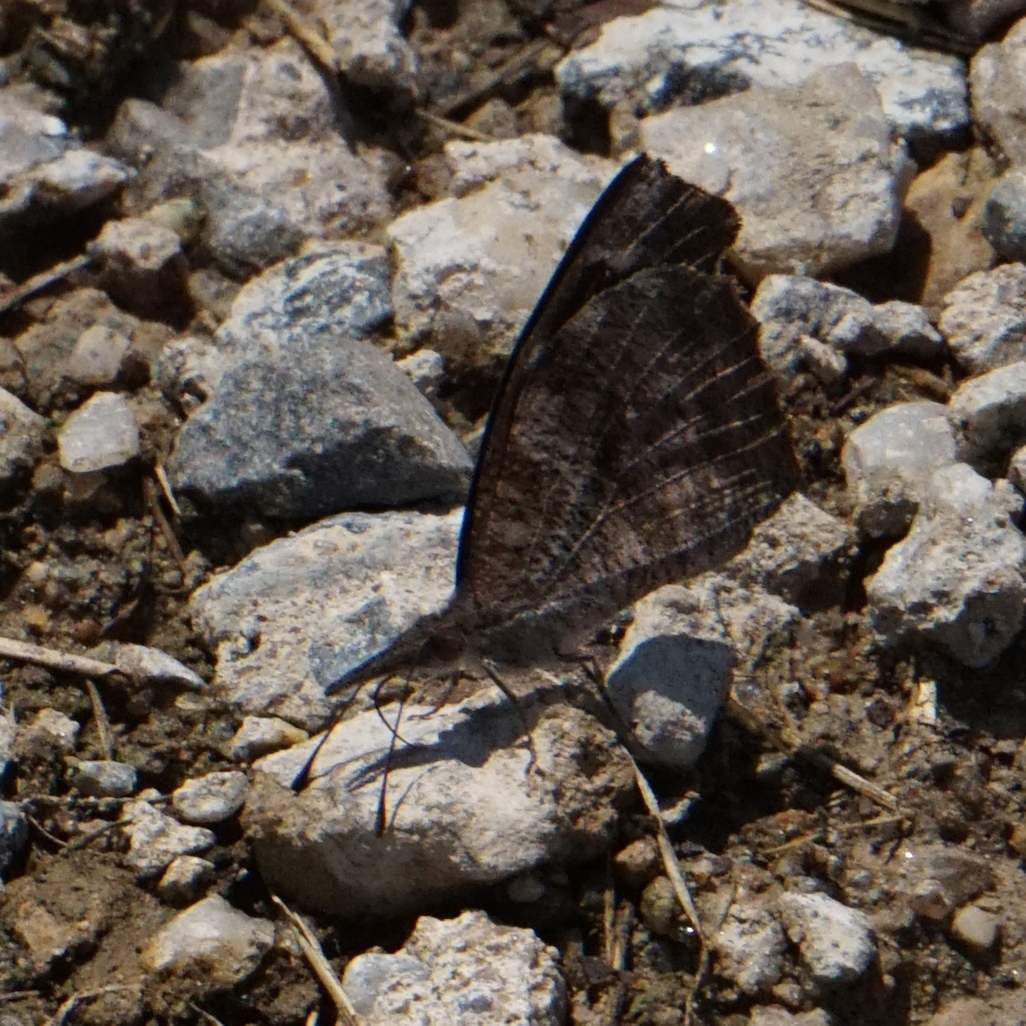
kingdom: Animalia
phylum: Arthropoda
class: Insecta
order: Lepidoptera
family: Nymphalidae
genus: Libytheana
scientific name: Libytheana carinenta
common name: American snout
